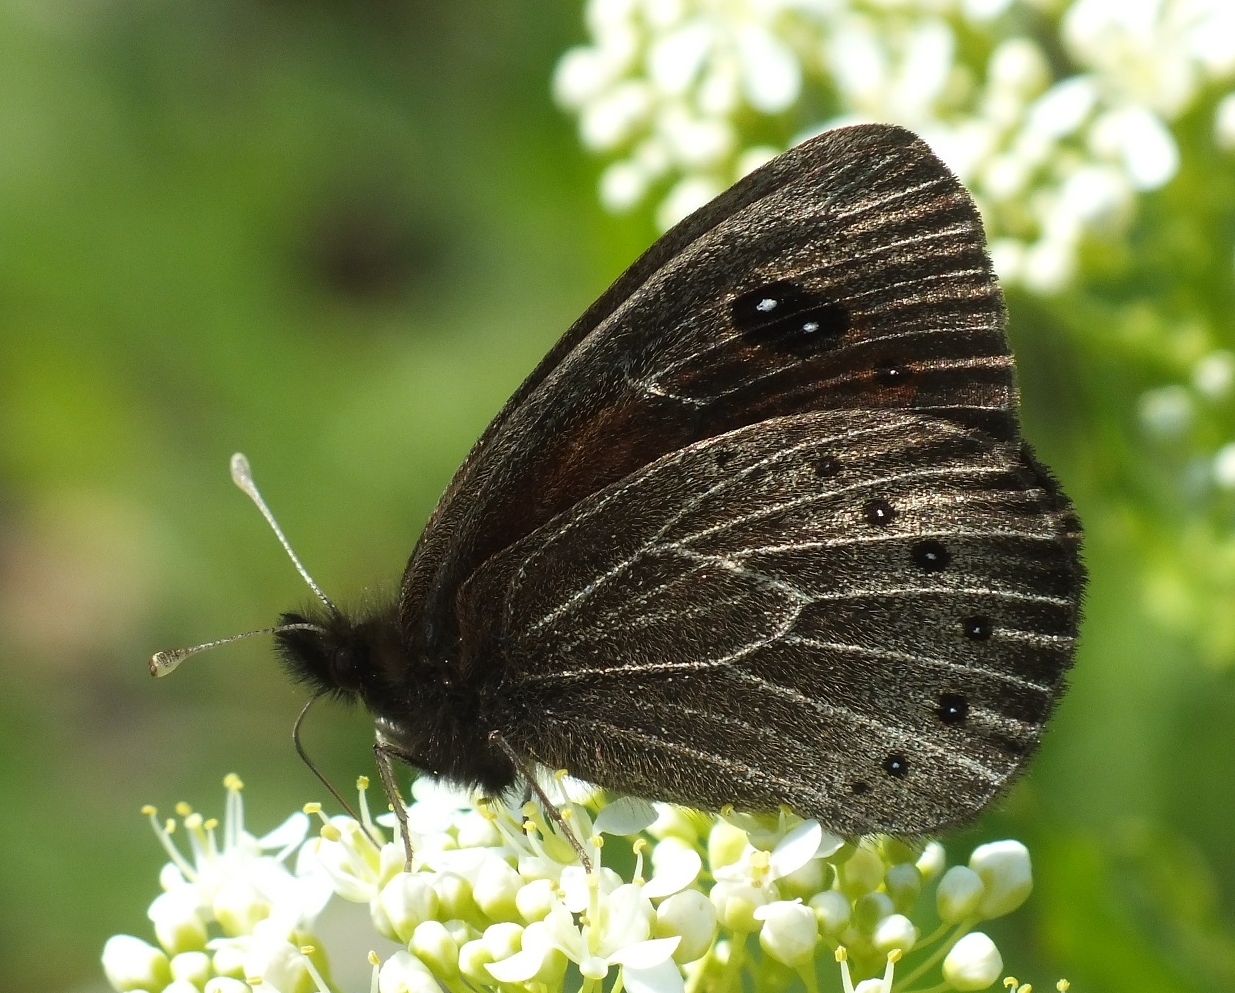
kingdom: Animalia
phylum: Arthropoda
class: Insecta
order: Lepidoptera
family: Nymphalidae
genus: Proterebia
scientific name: Proterebia afra
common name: Dalmatian ringlet
